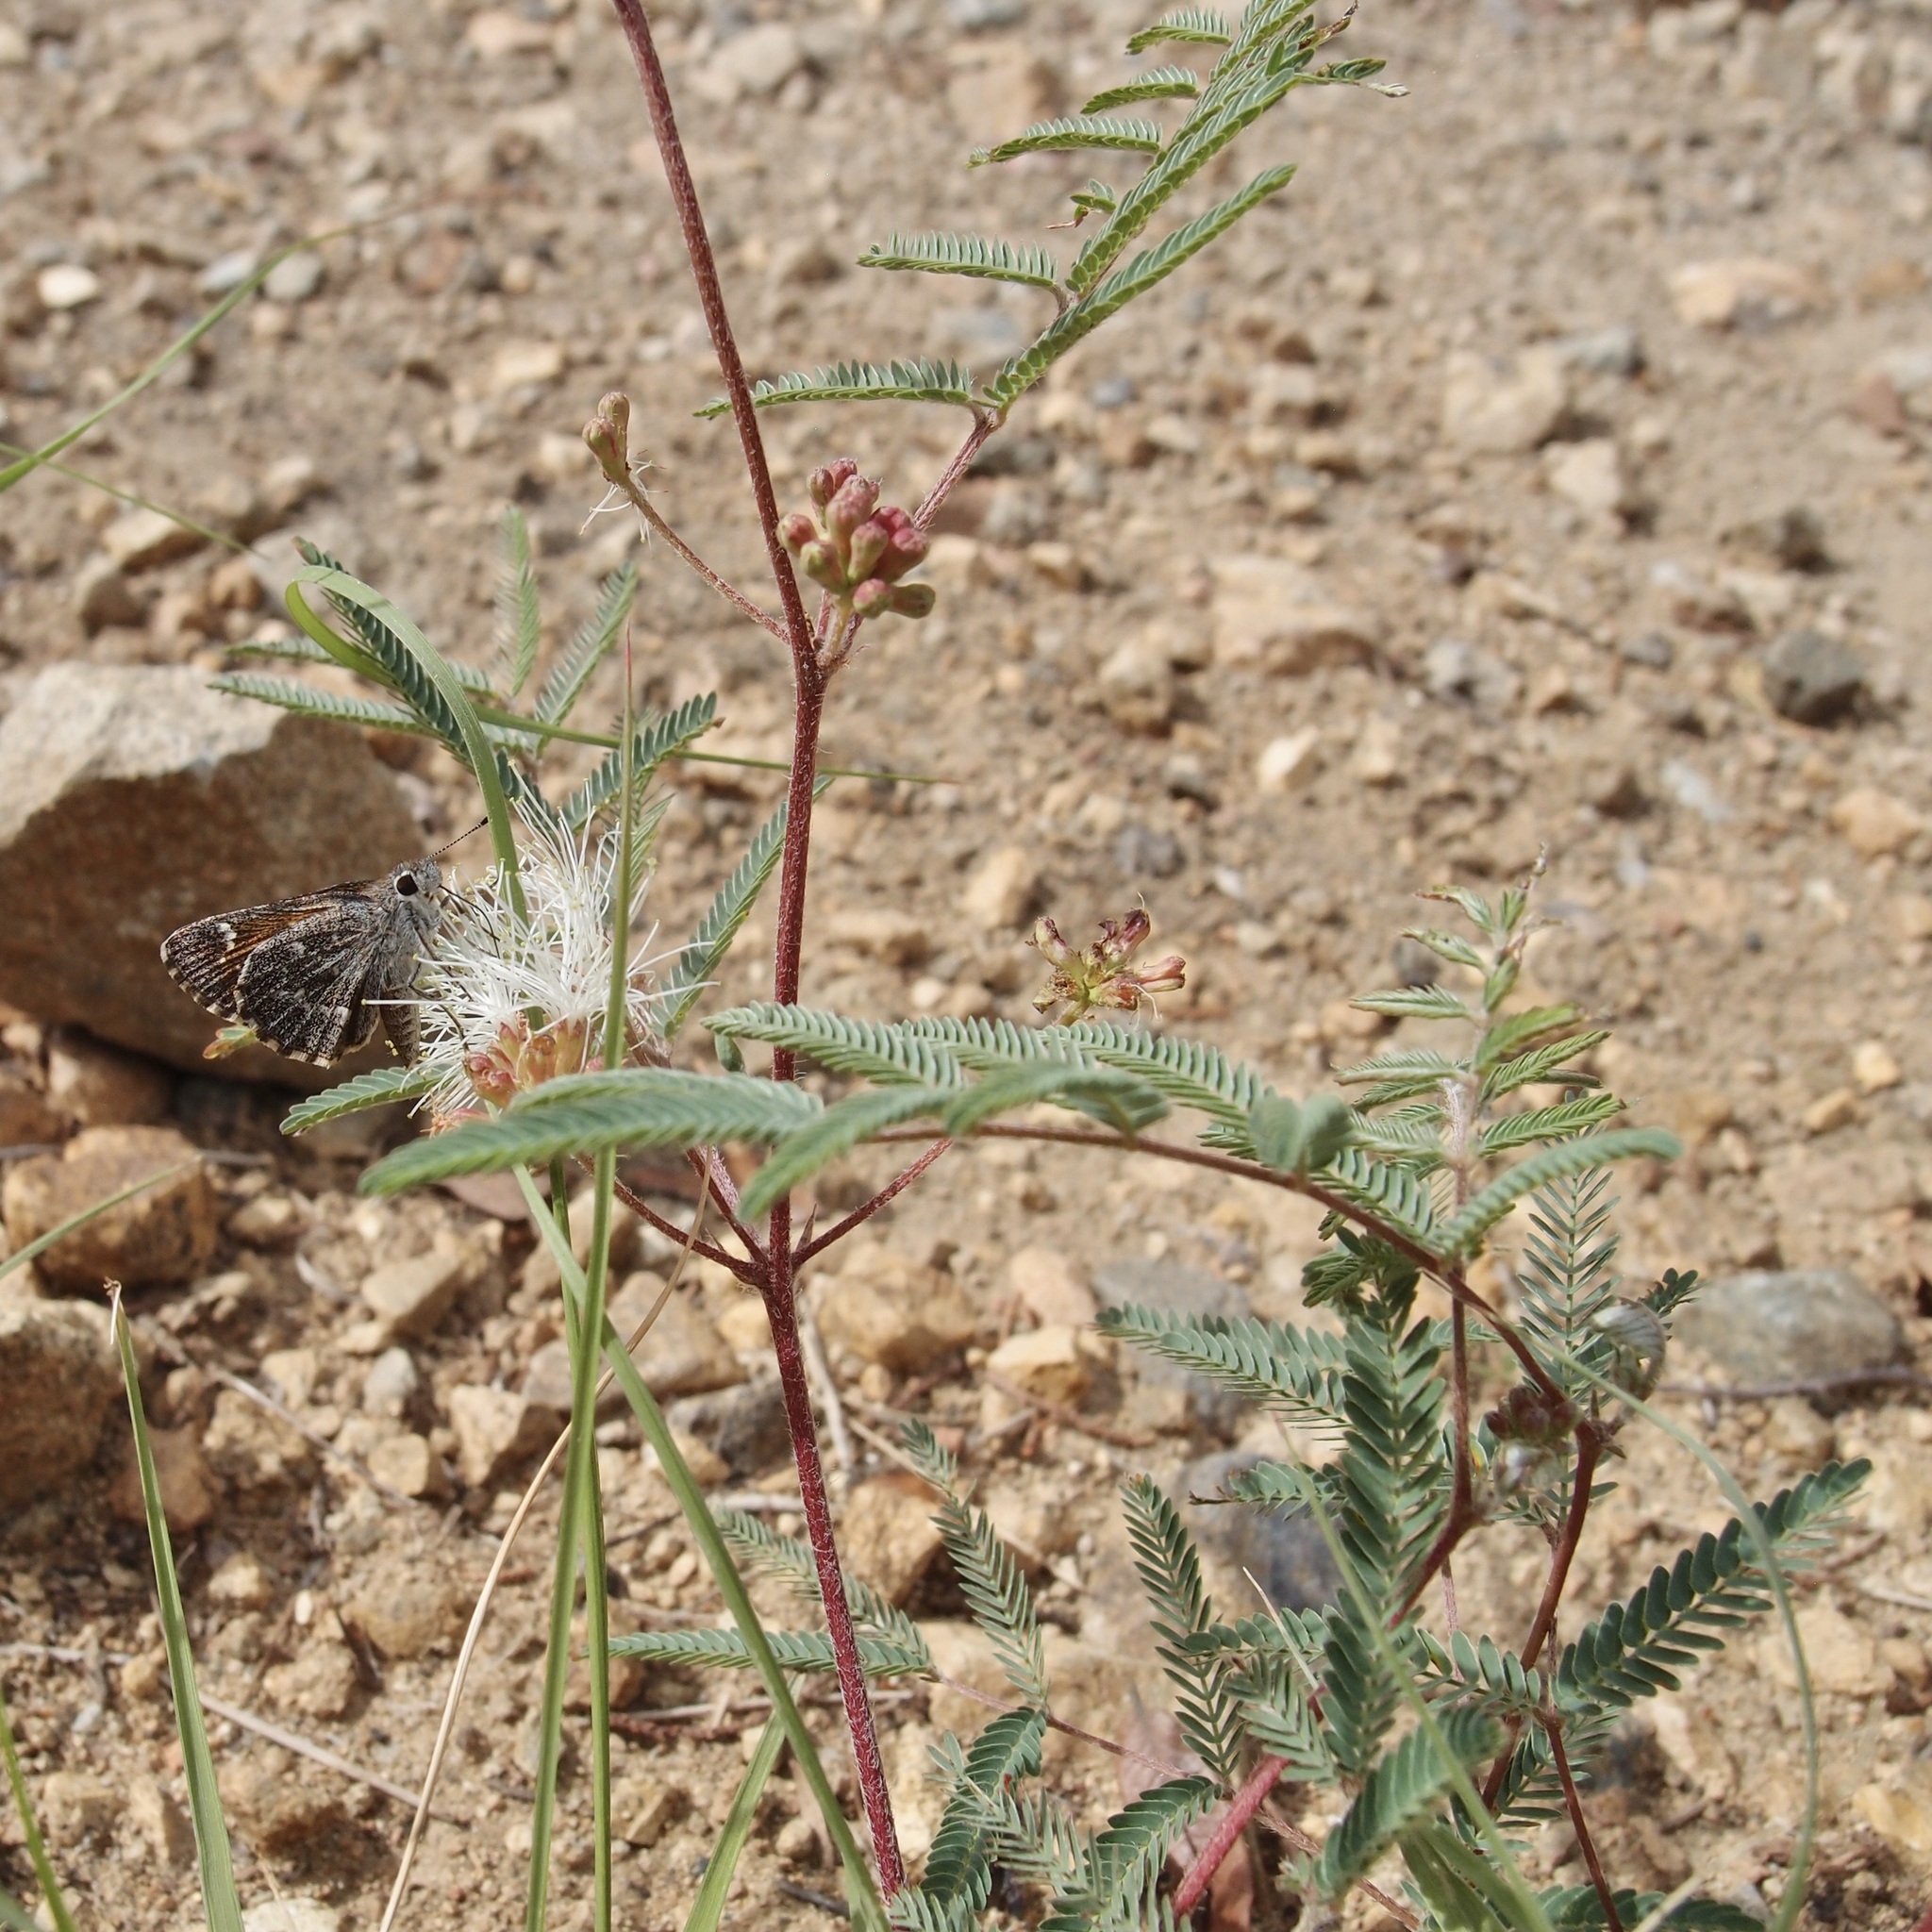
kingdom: Plantae
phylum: Tracheophyta
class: Magnoliopsida
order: Fabales
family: Fabaceae
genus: Calliandra
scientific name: Calliandra humilis
